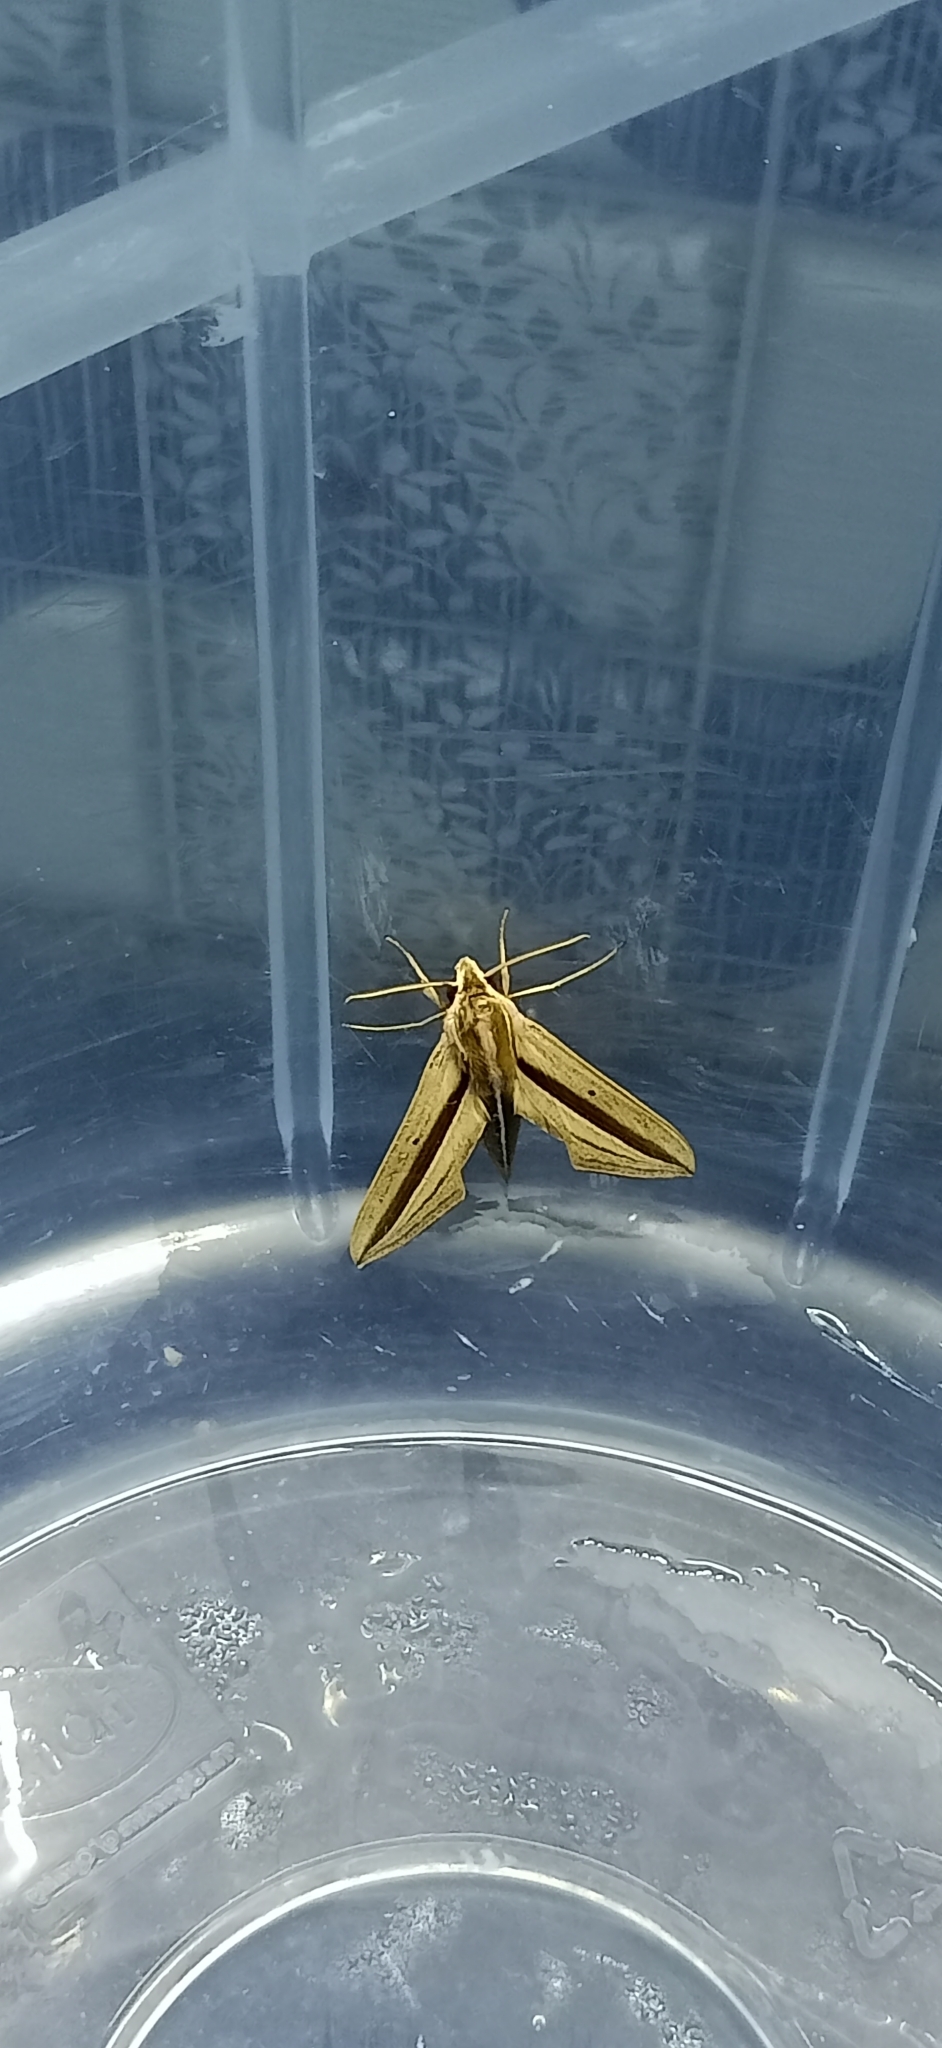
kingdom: Animalia
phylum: Arthropoda
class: Insecta
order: Lepidoptera
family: Sphingidae
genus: Theretra
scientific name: Theretra silhetensis
